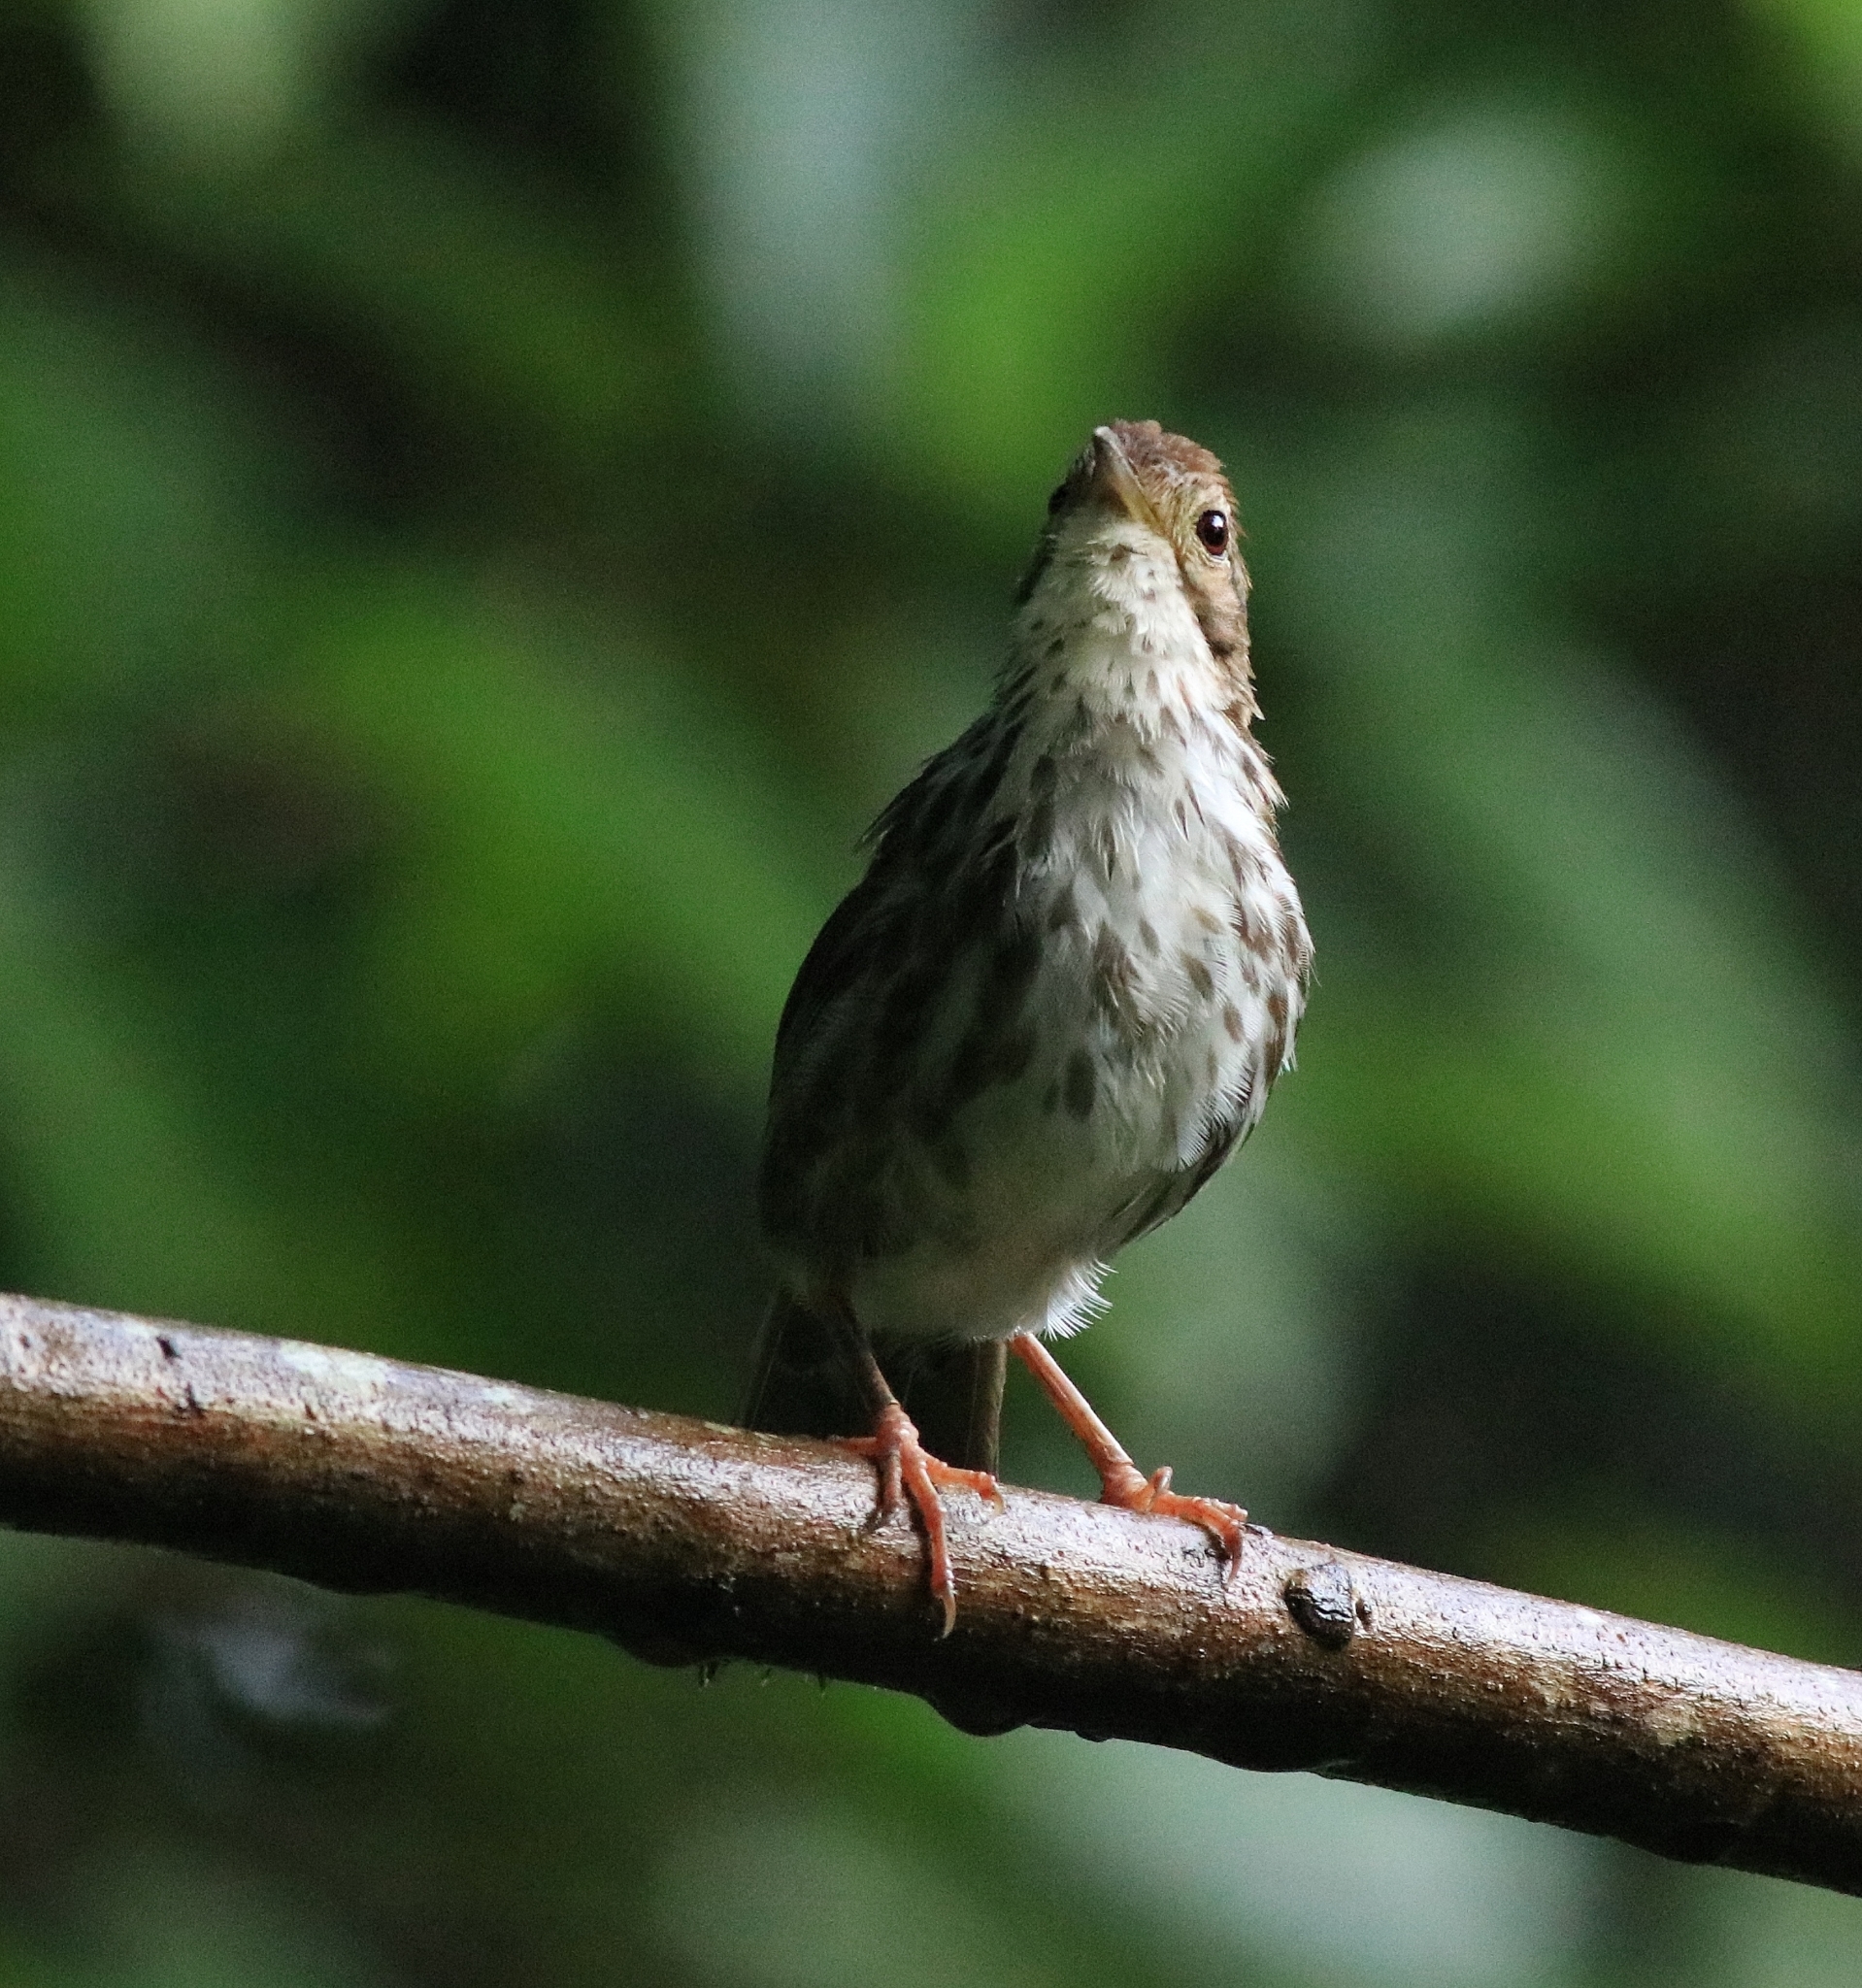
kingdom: Animalia
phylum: Chordata
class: Aves
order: Passeriformes
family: Pellorneidae
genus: Pellorneum
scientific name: Pellorneum ruficeps
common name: Puff-throated babbler
